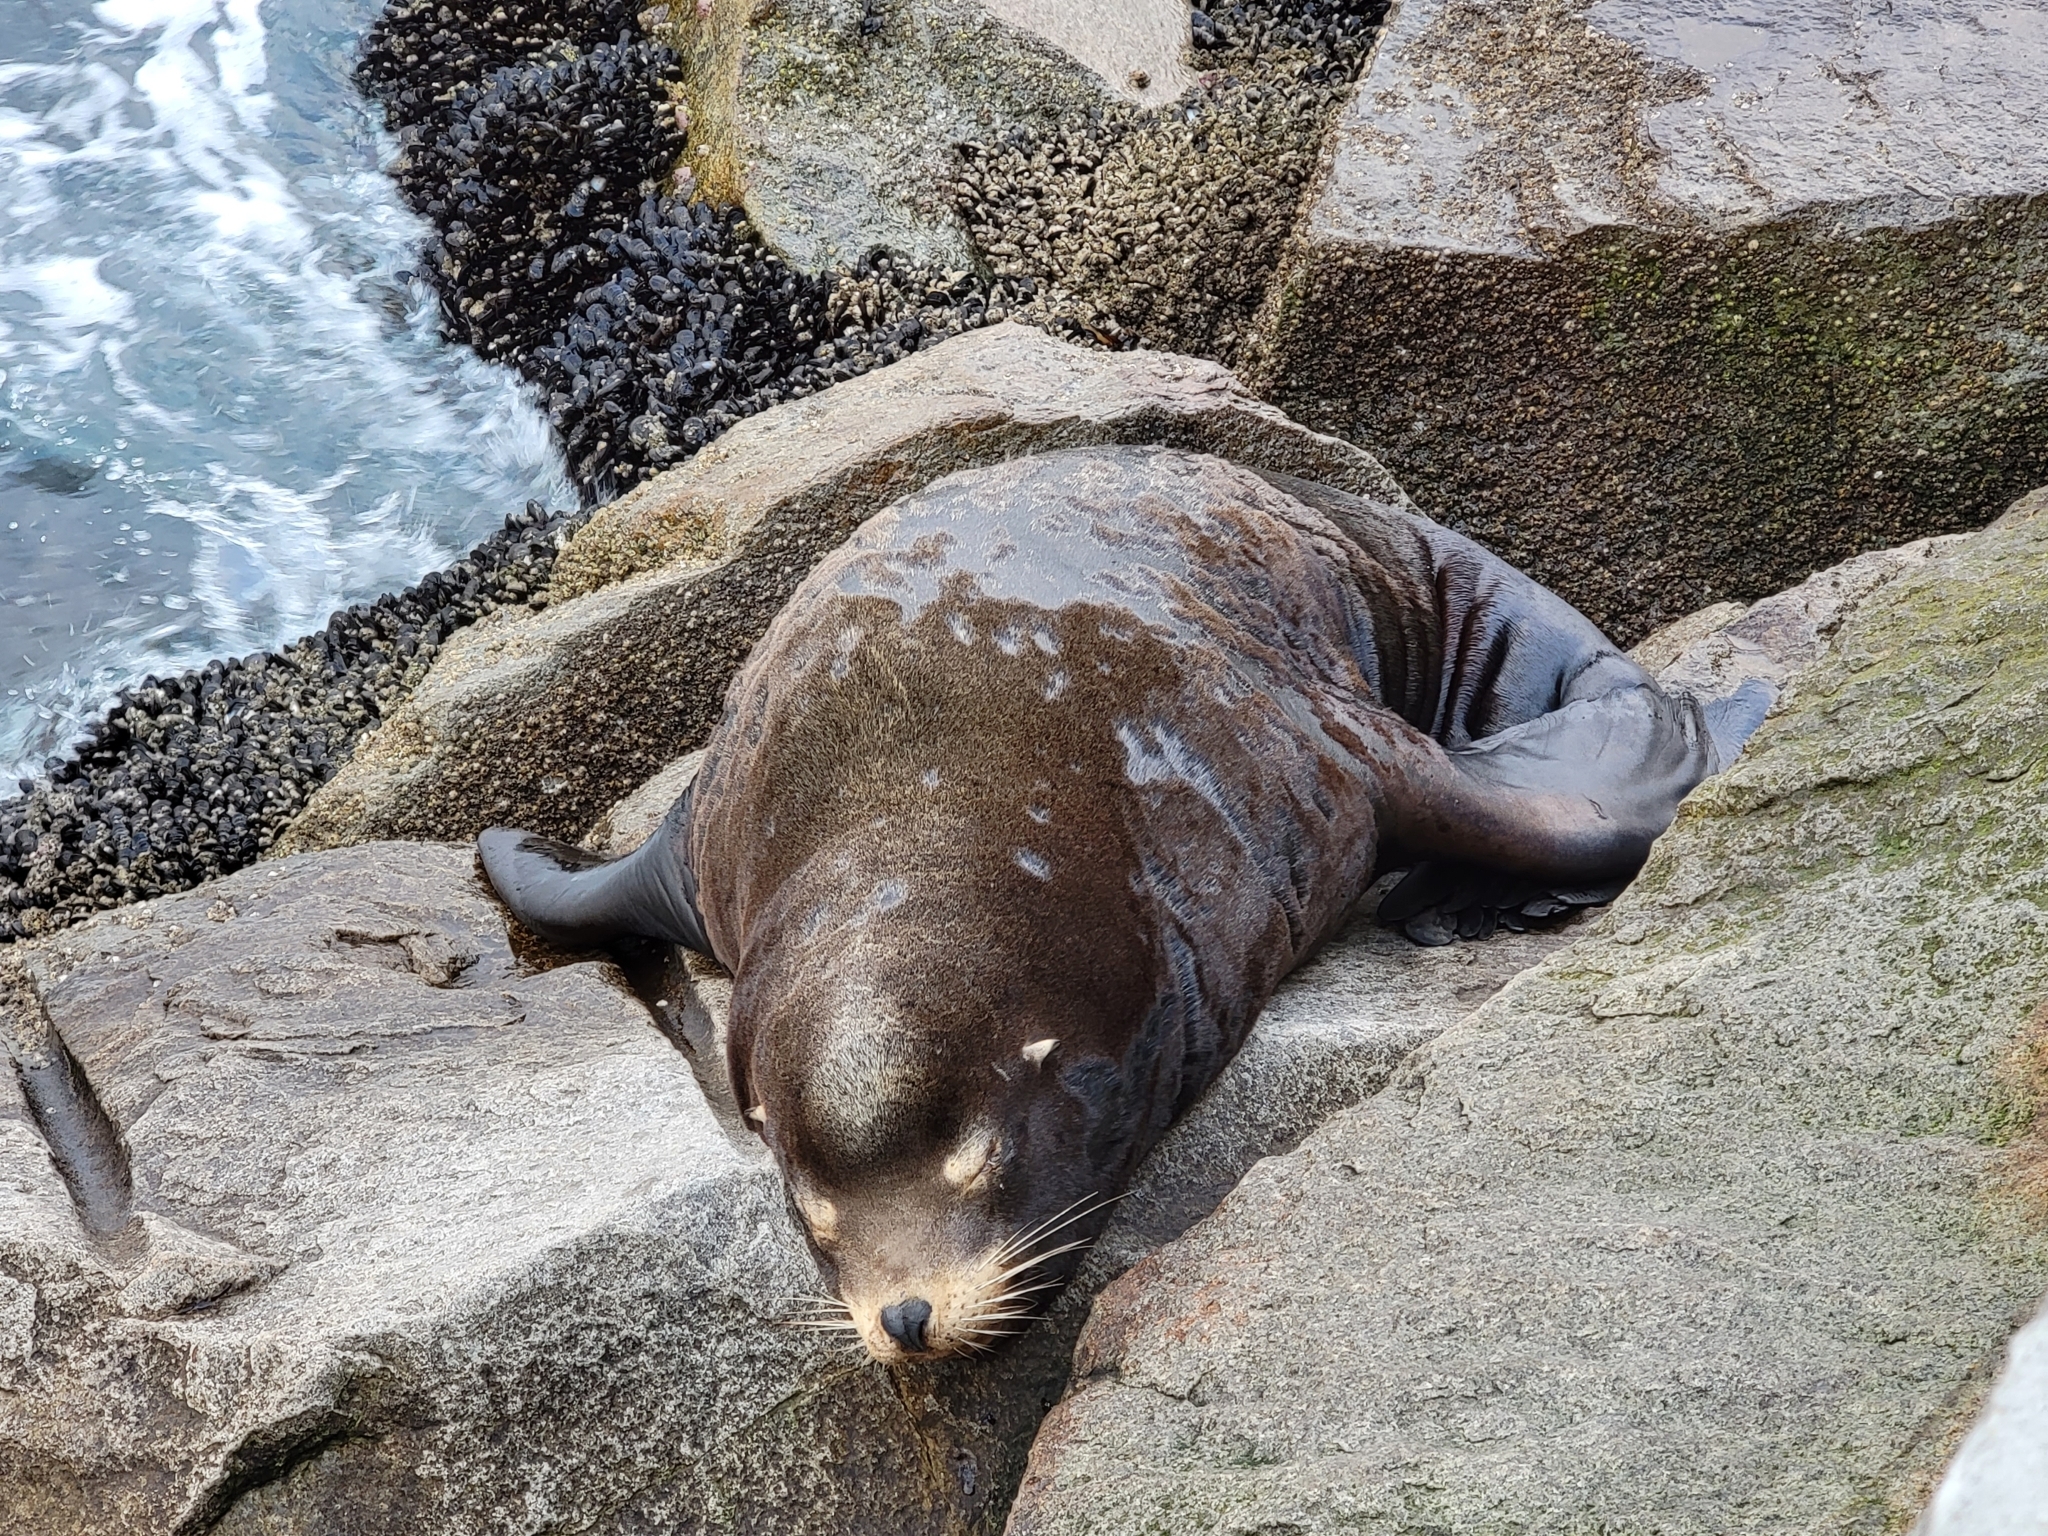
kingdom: Animalia
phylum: Chordata
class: Mammalia
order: Carnivora
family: Otariidae
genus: Zalophus
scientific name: Zalophus californianus
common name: California sea lion
